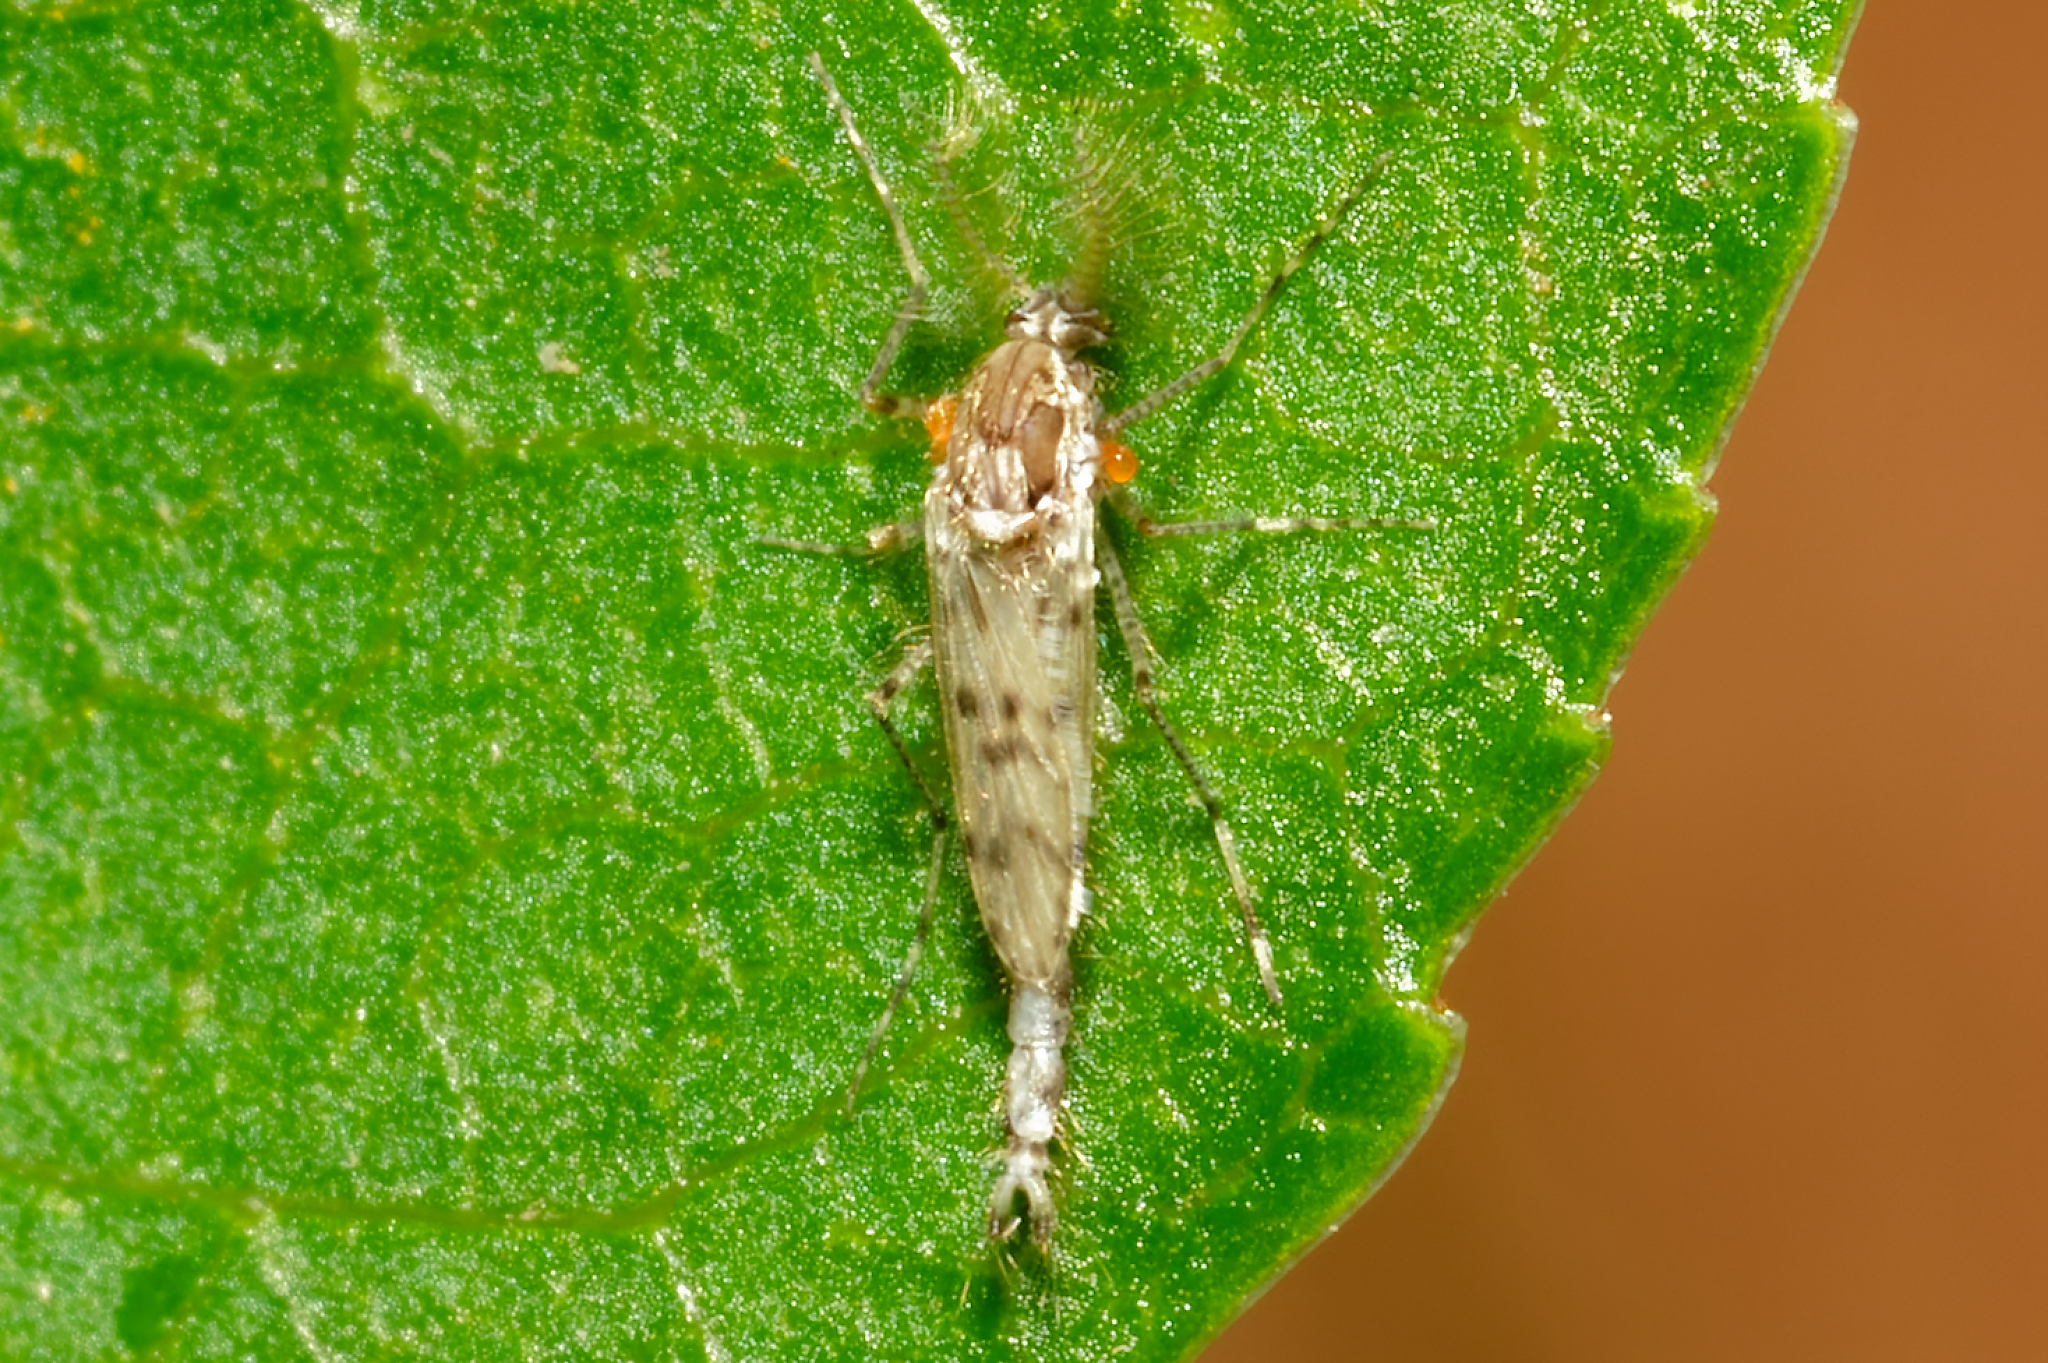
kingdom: Animalia
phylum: Arthropoda
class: Insecta
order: Diptera
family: Chaoboridae
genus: Chaoborus
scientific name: Chaoborus punctipennis
